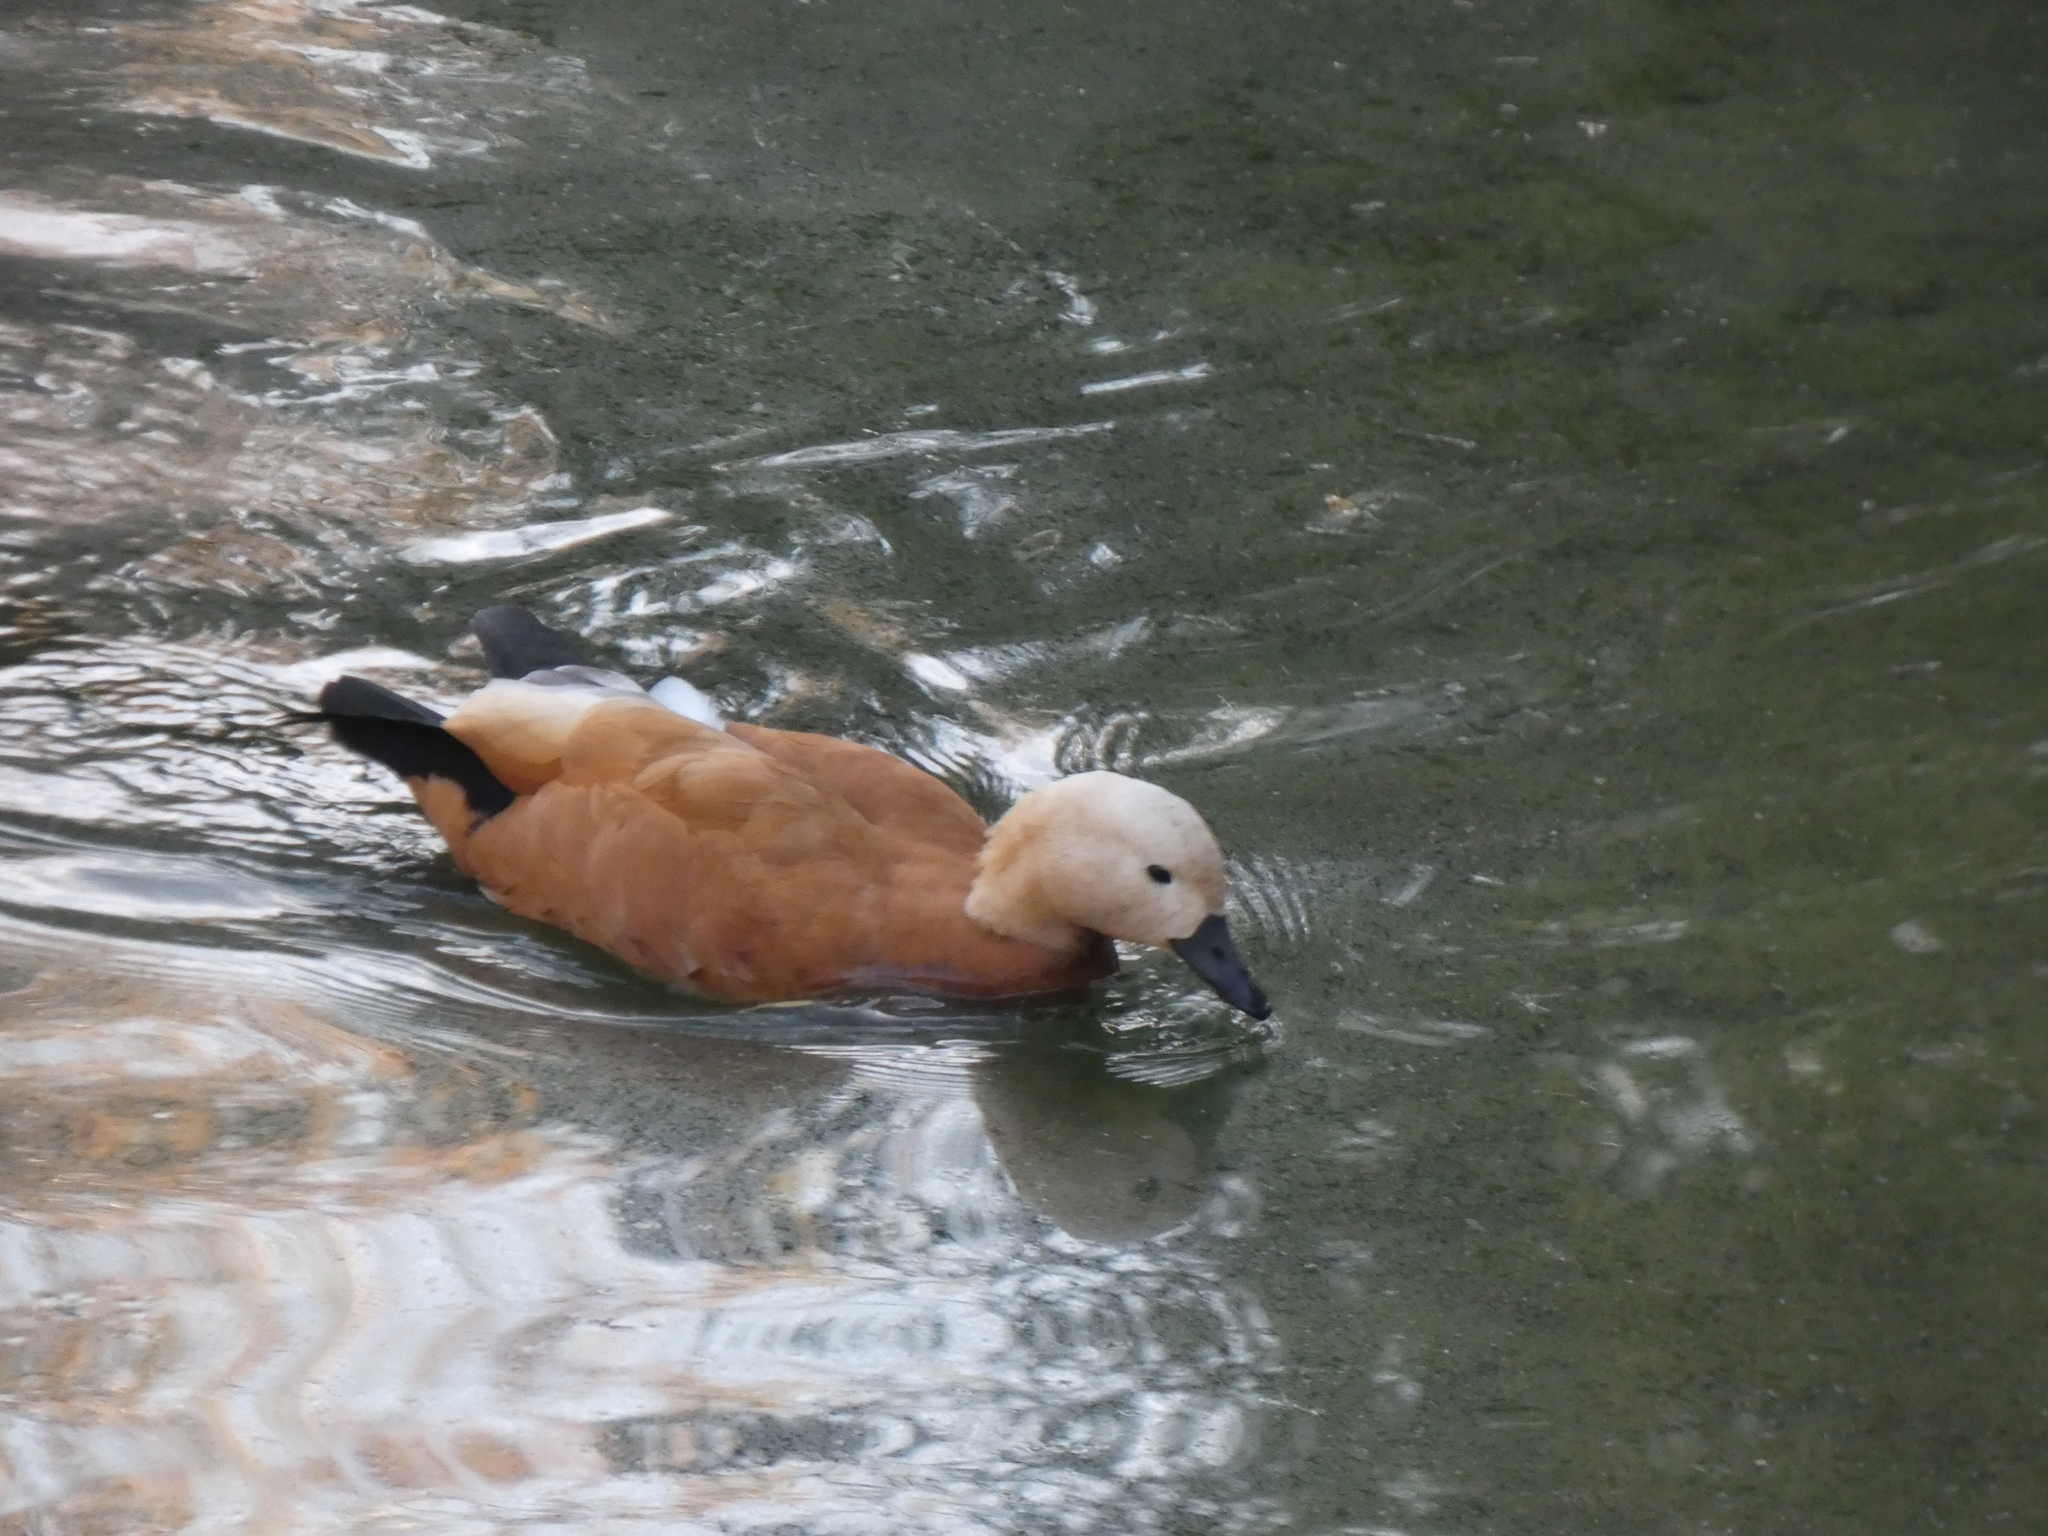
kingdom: Animalia
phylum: Chordata
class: Aves
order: Anseriformes
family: Anatidae
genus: Tadorna
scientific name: Tadorna ferruginea
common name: Ruddy shelduck
